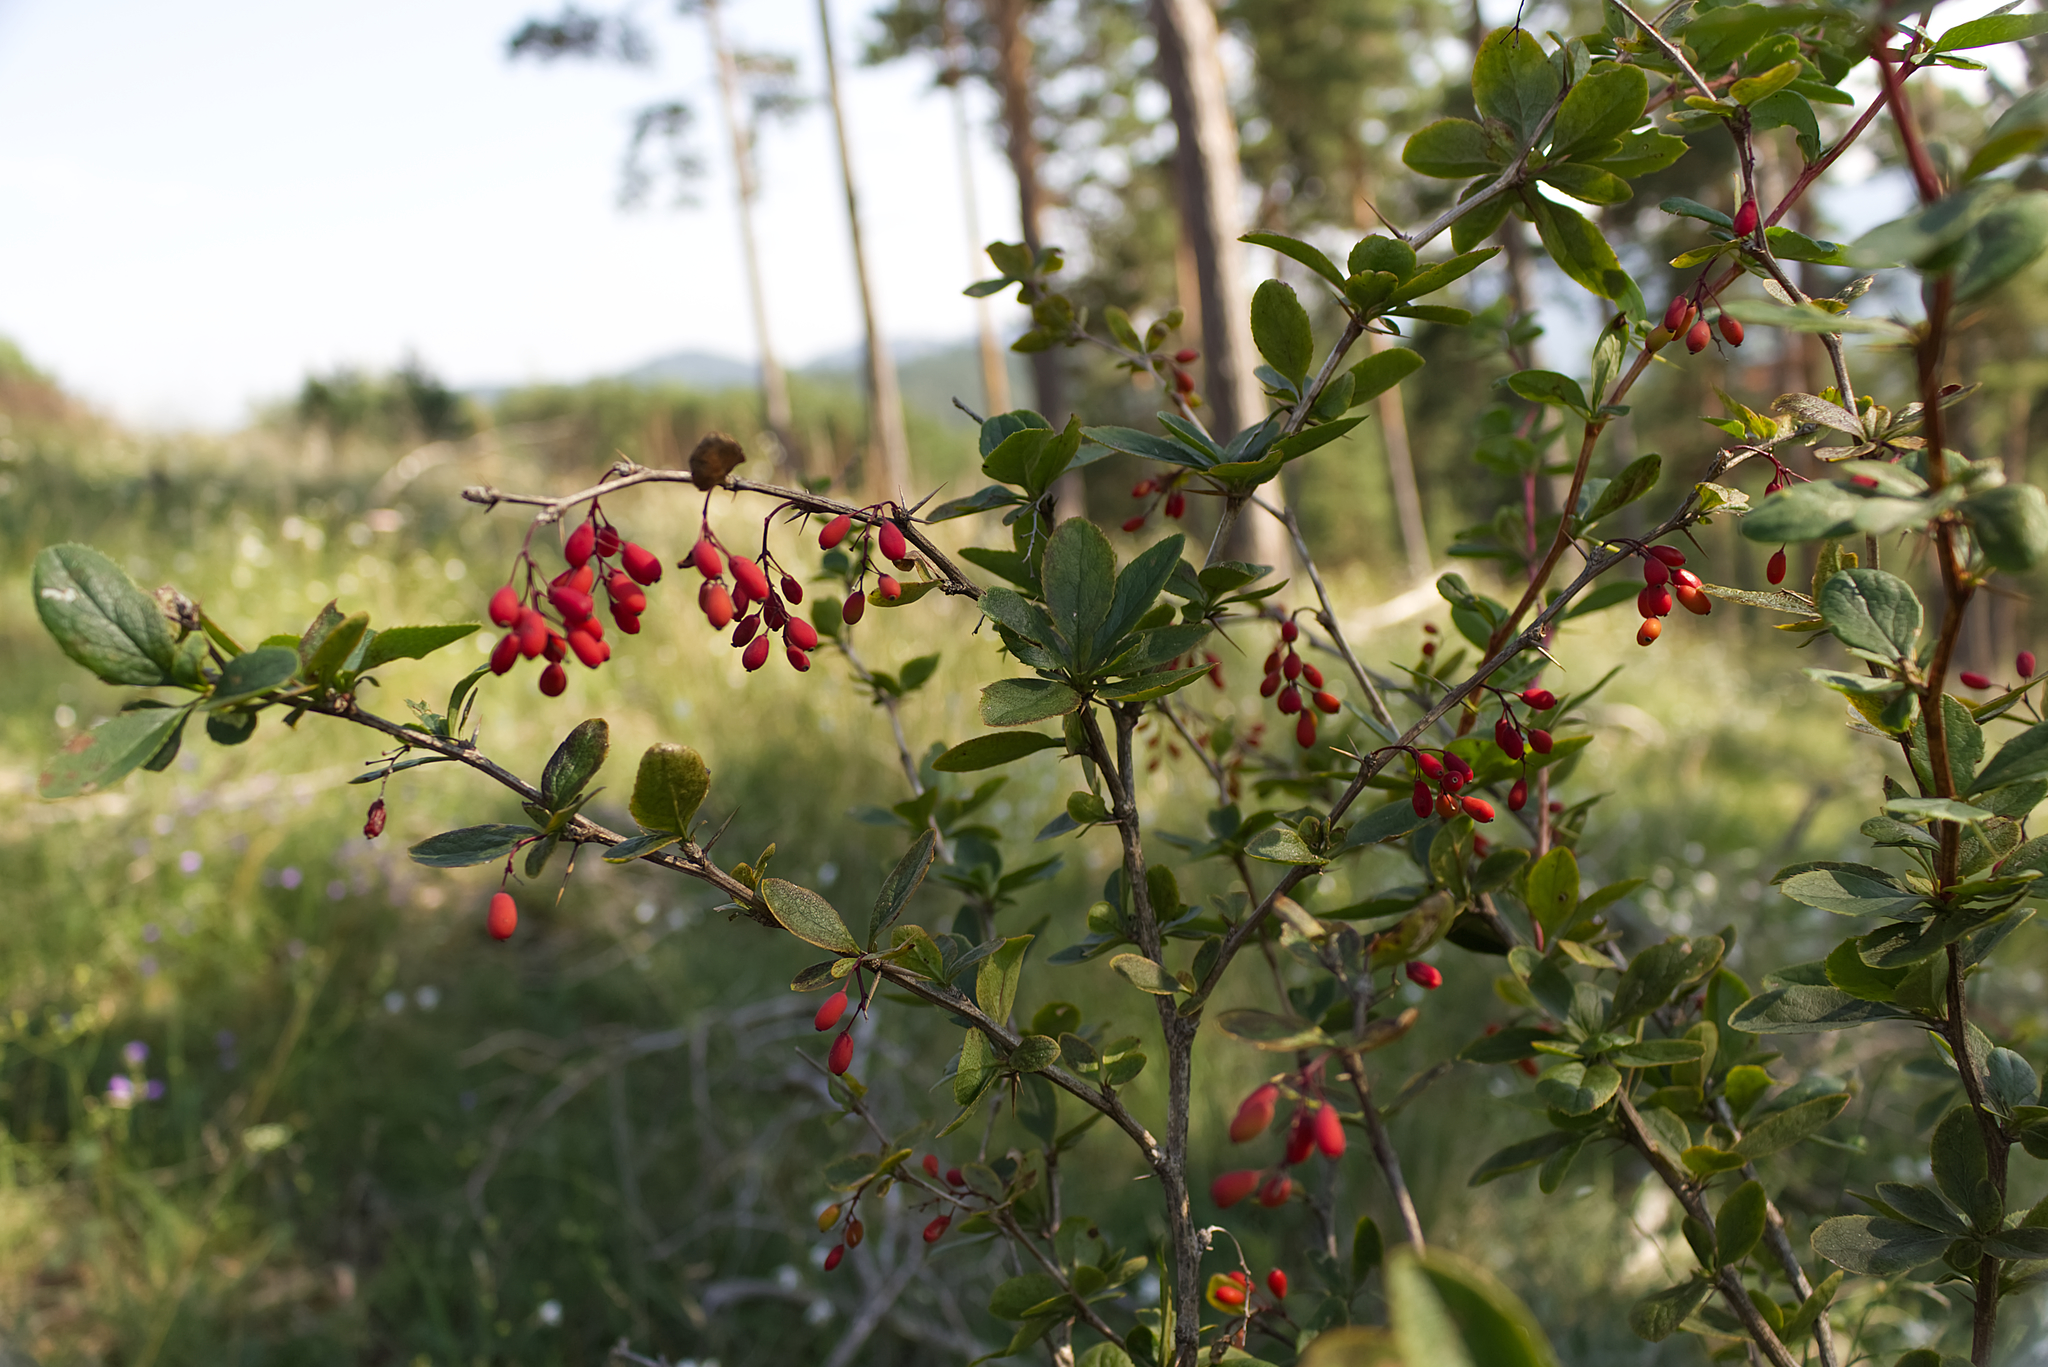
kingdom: Plantae
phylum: Tracheophyta
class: Magnoliopsida
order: Ranunculales
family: Berberidaceae
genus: Berberis
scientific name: Berberis vulgaris
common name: Barberry
